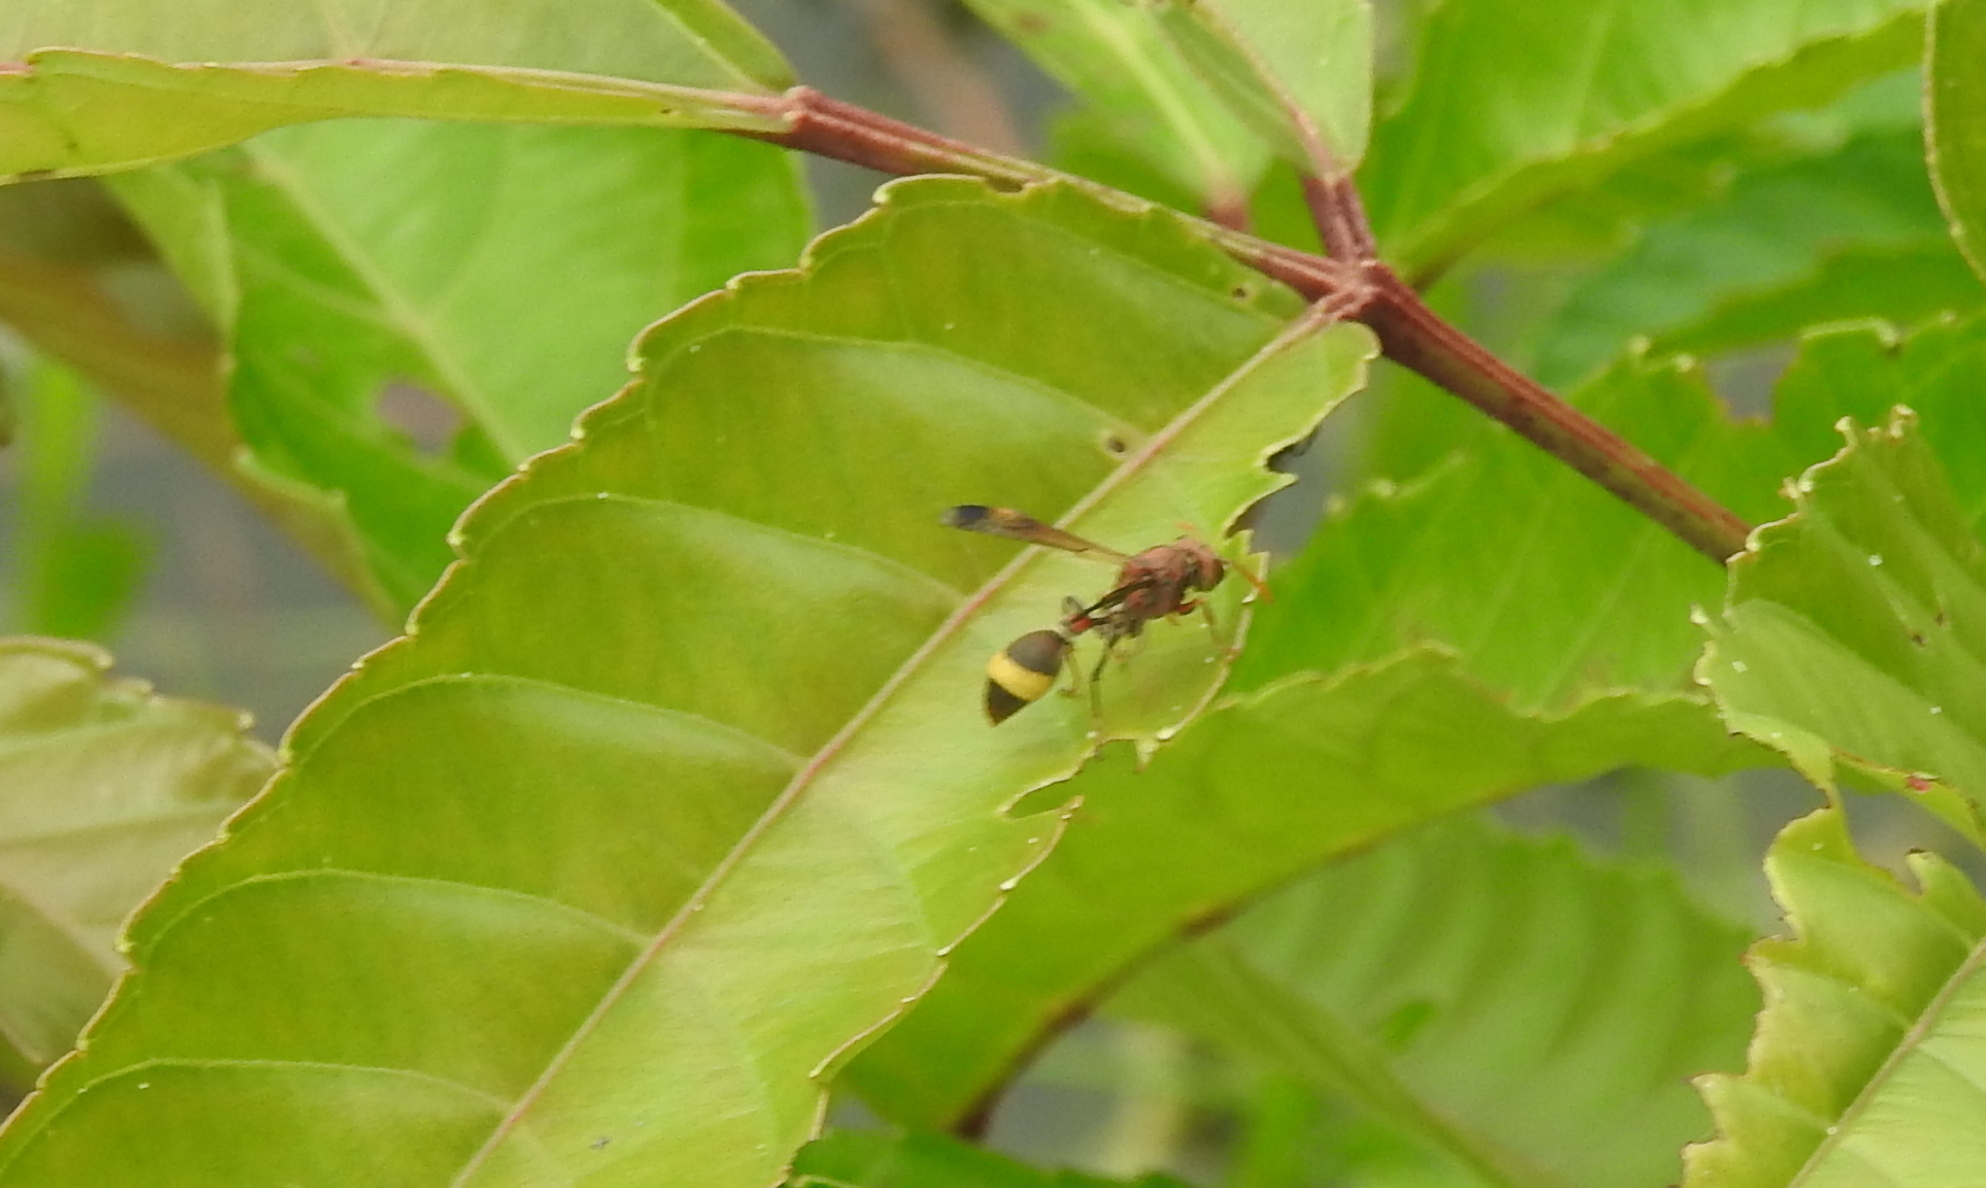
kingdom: Animalia
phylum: Arthropoda
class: Insecta
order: Hymenoptera
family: Vespidae
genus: Ropalidia
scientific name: Ropalidia
